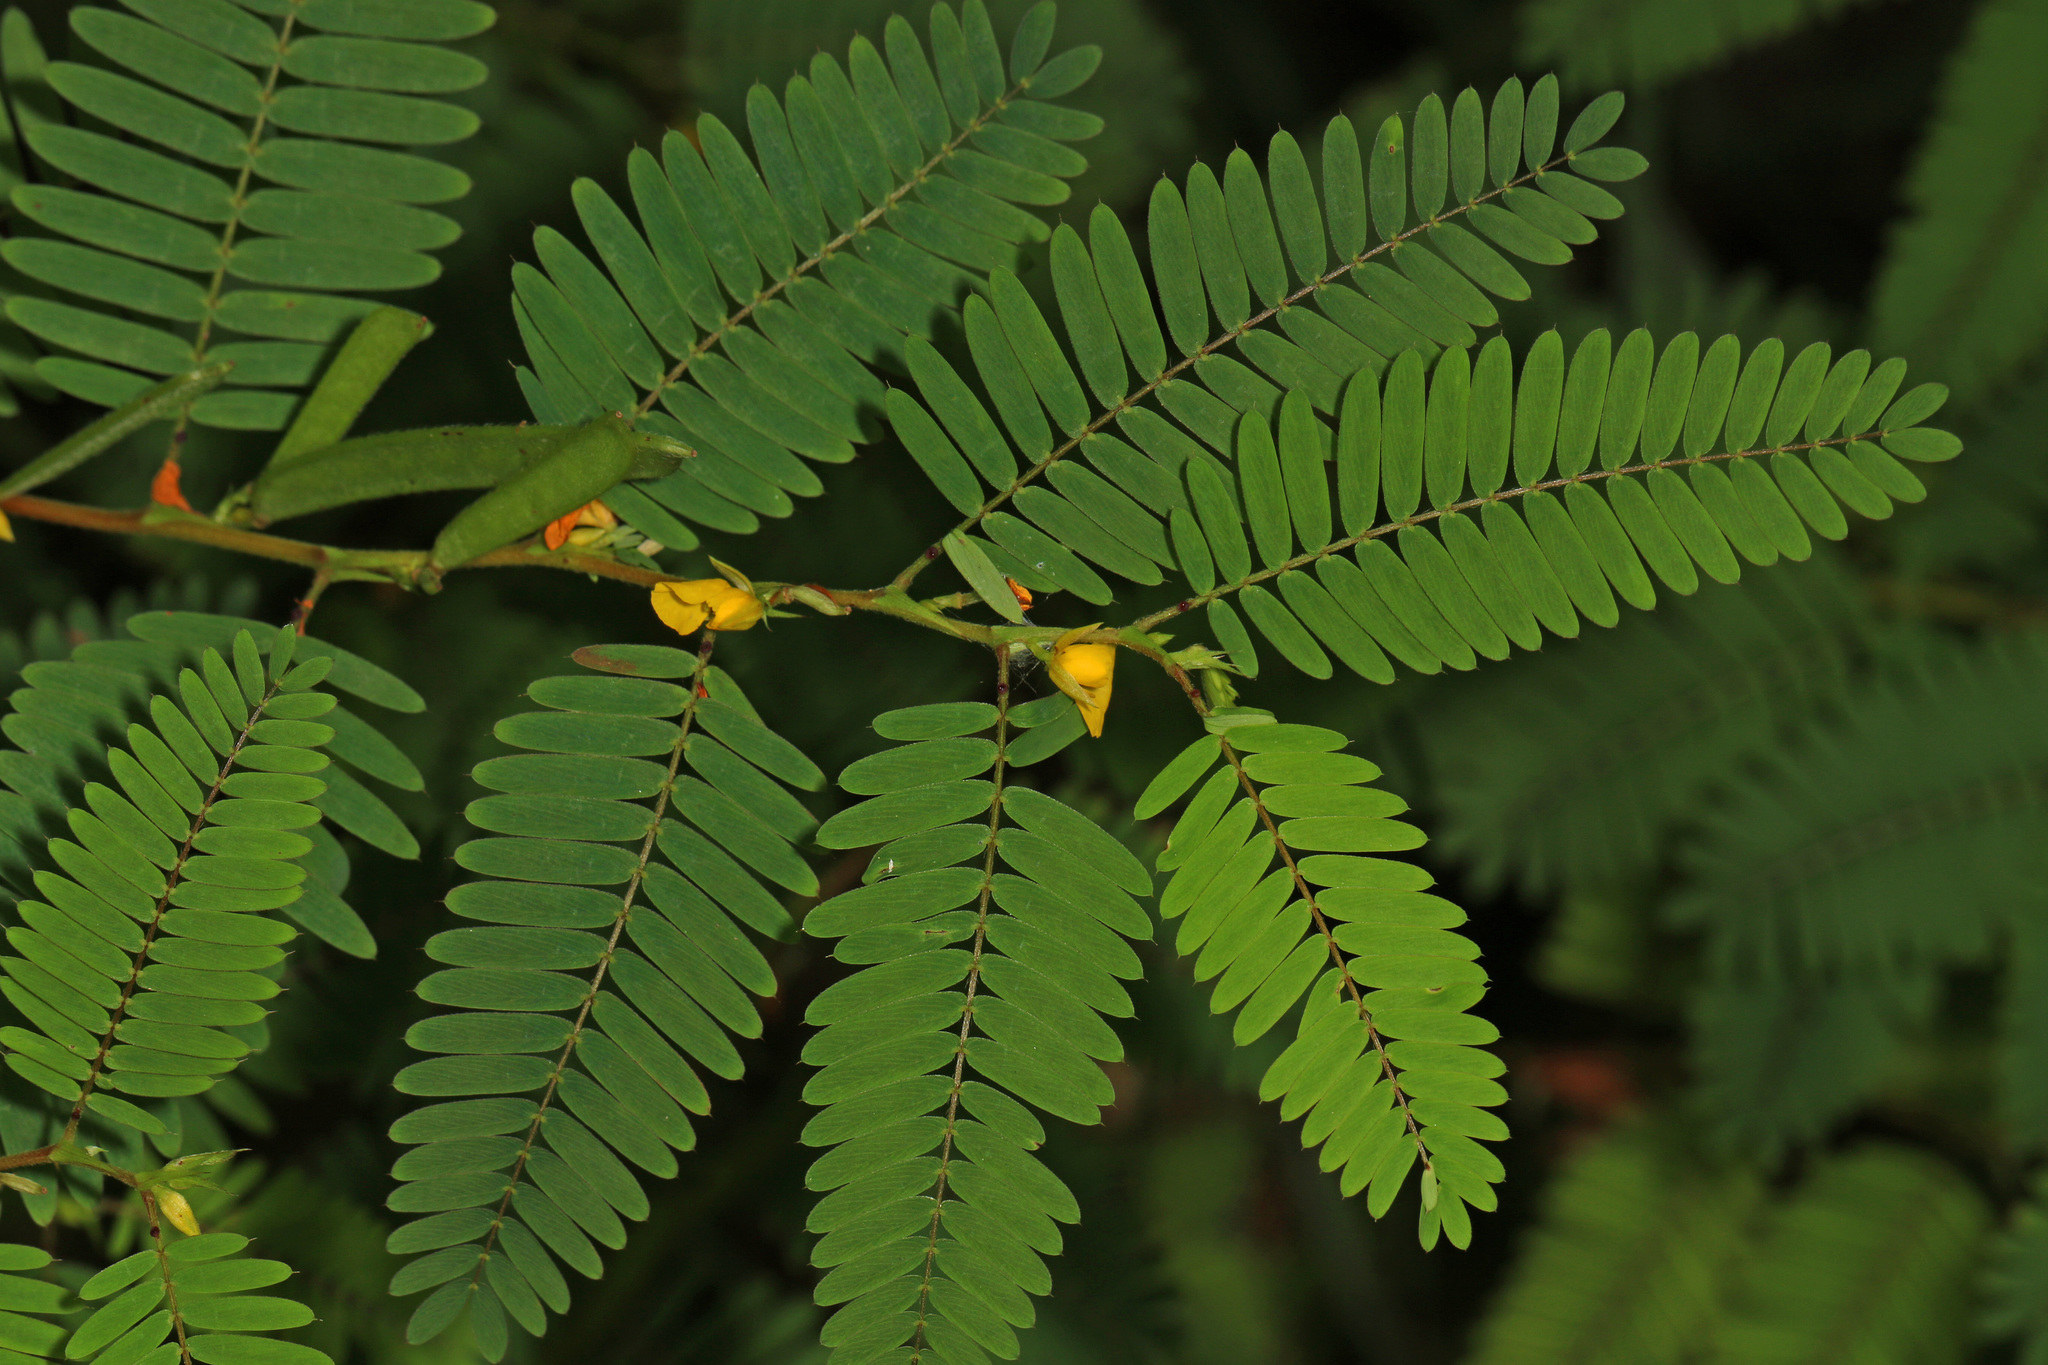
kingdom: Plantae
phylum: Tracheophyta
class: Magnoliopsida
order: Fabales
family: Fabaceae
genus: Chamaecrista
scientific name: Chamaecrista nictitans
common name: Sensitive cassia
